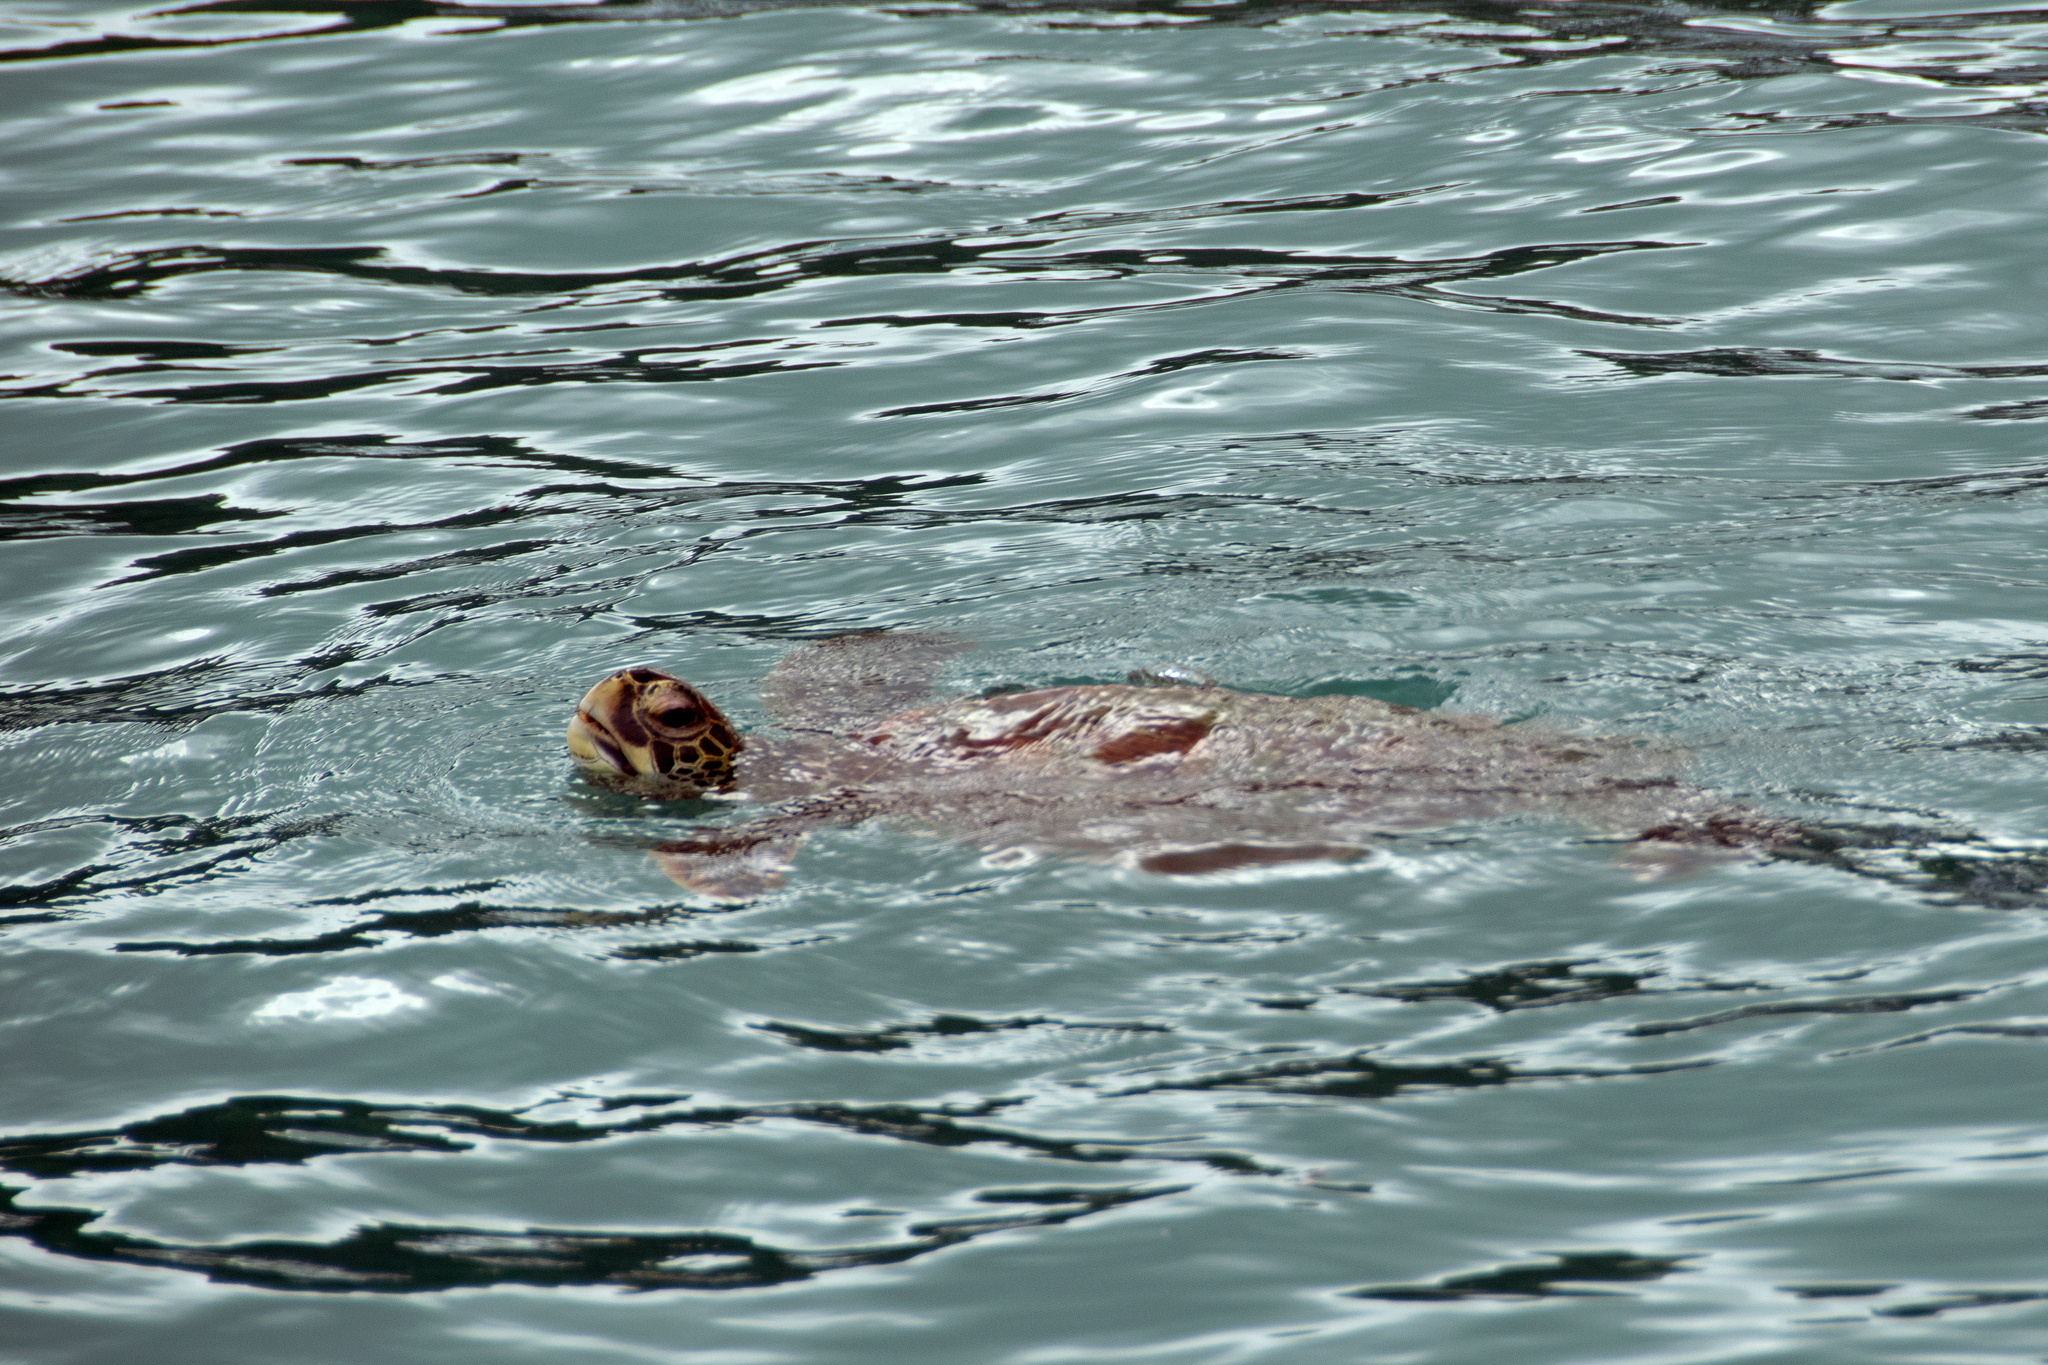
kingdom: Animalia
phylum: Chordata
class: Testudines
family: Cheloniidae
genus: Chelonia
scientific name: Chelonia mydas
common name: Green turtle
